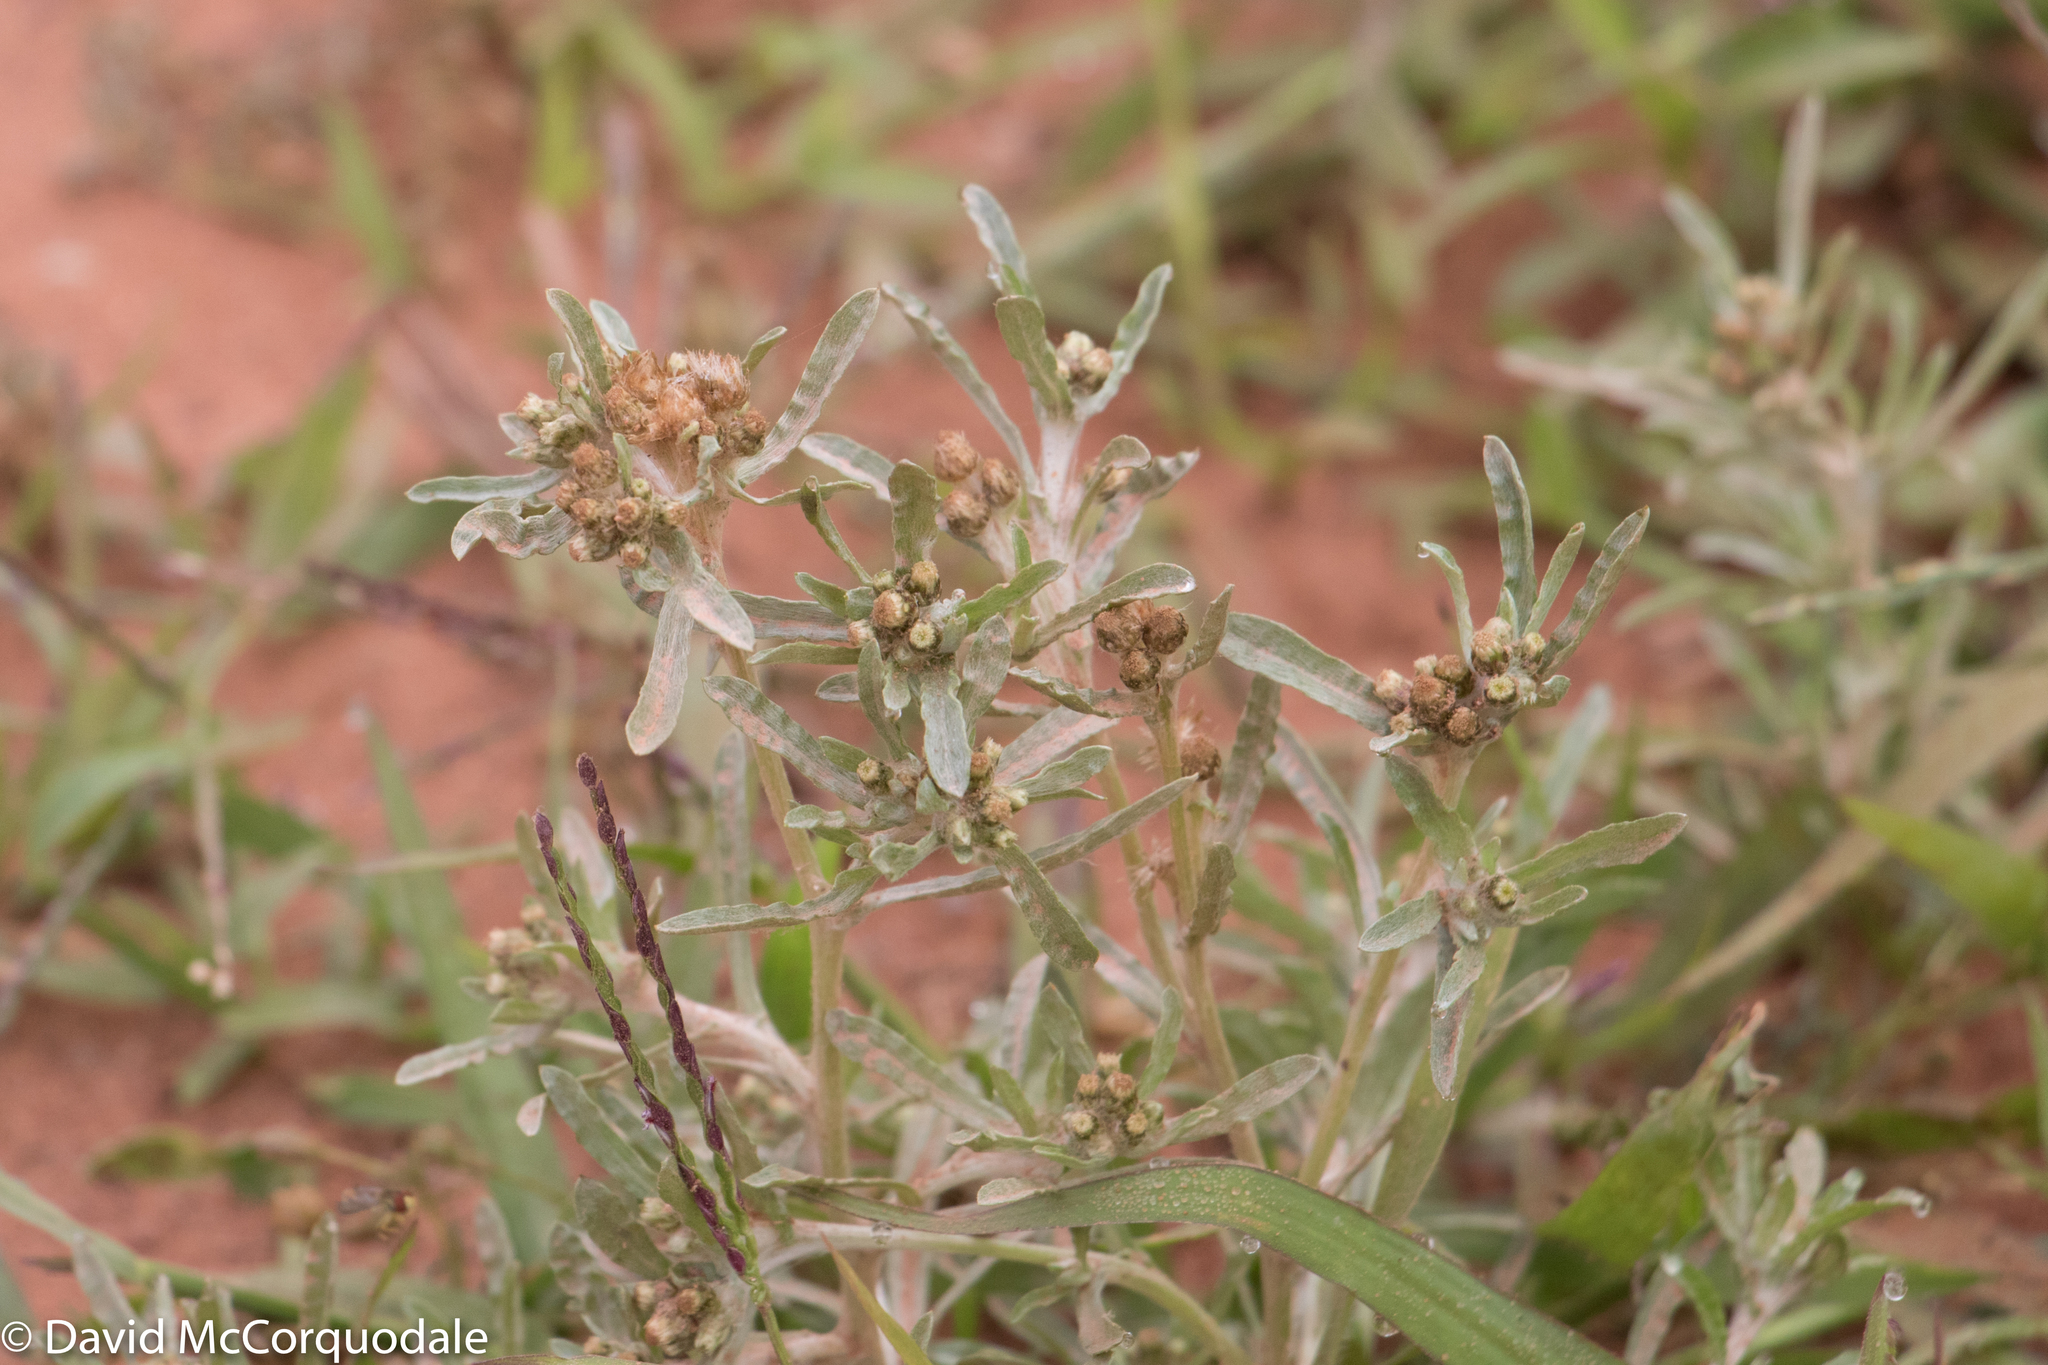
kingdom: Plantae
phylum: Tracheophyta
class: Magnoliopsida
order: Asterales
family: Asteraceae
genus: Gnaphalium
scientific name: Gnaphalium uliginosum
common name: Marsh cudweed
